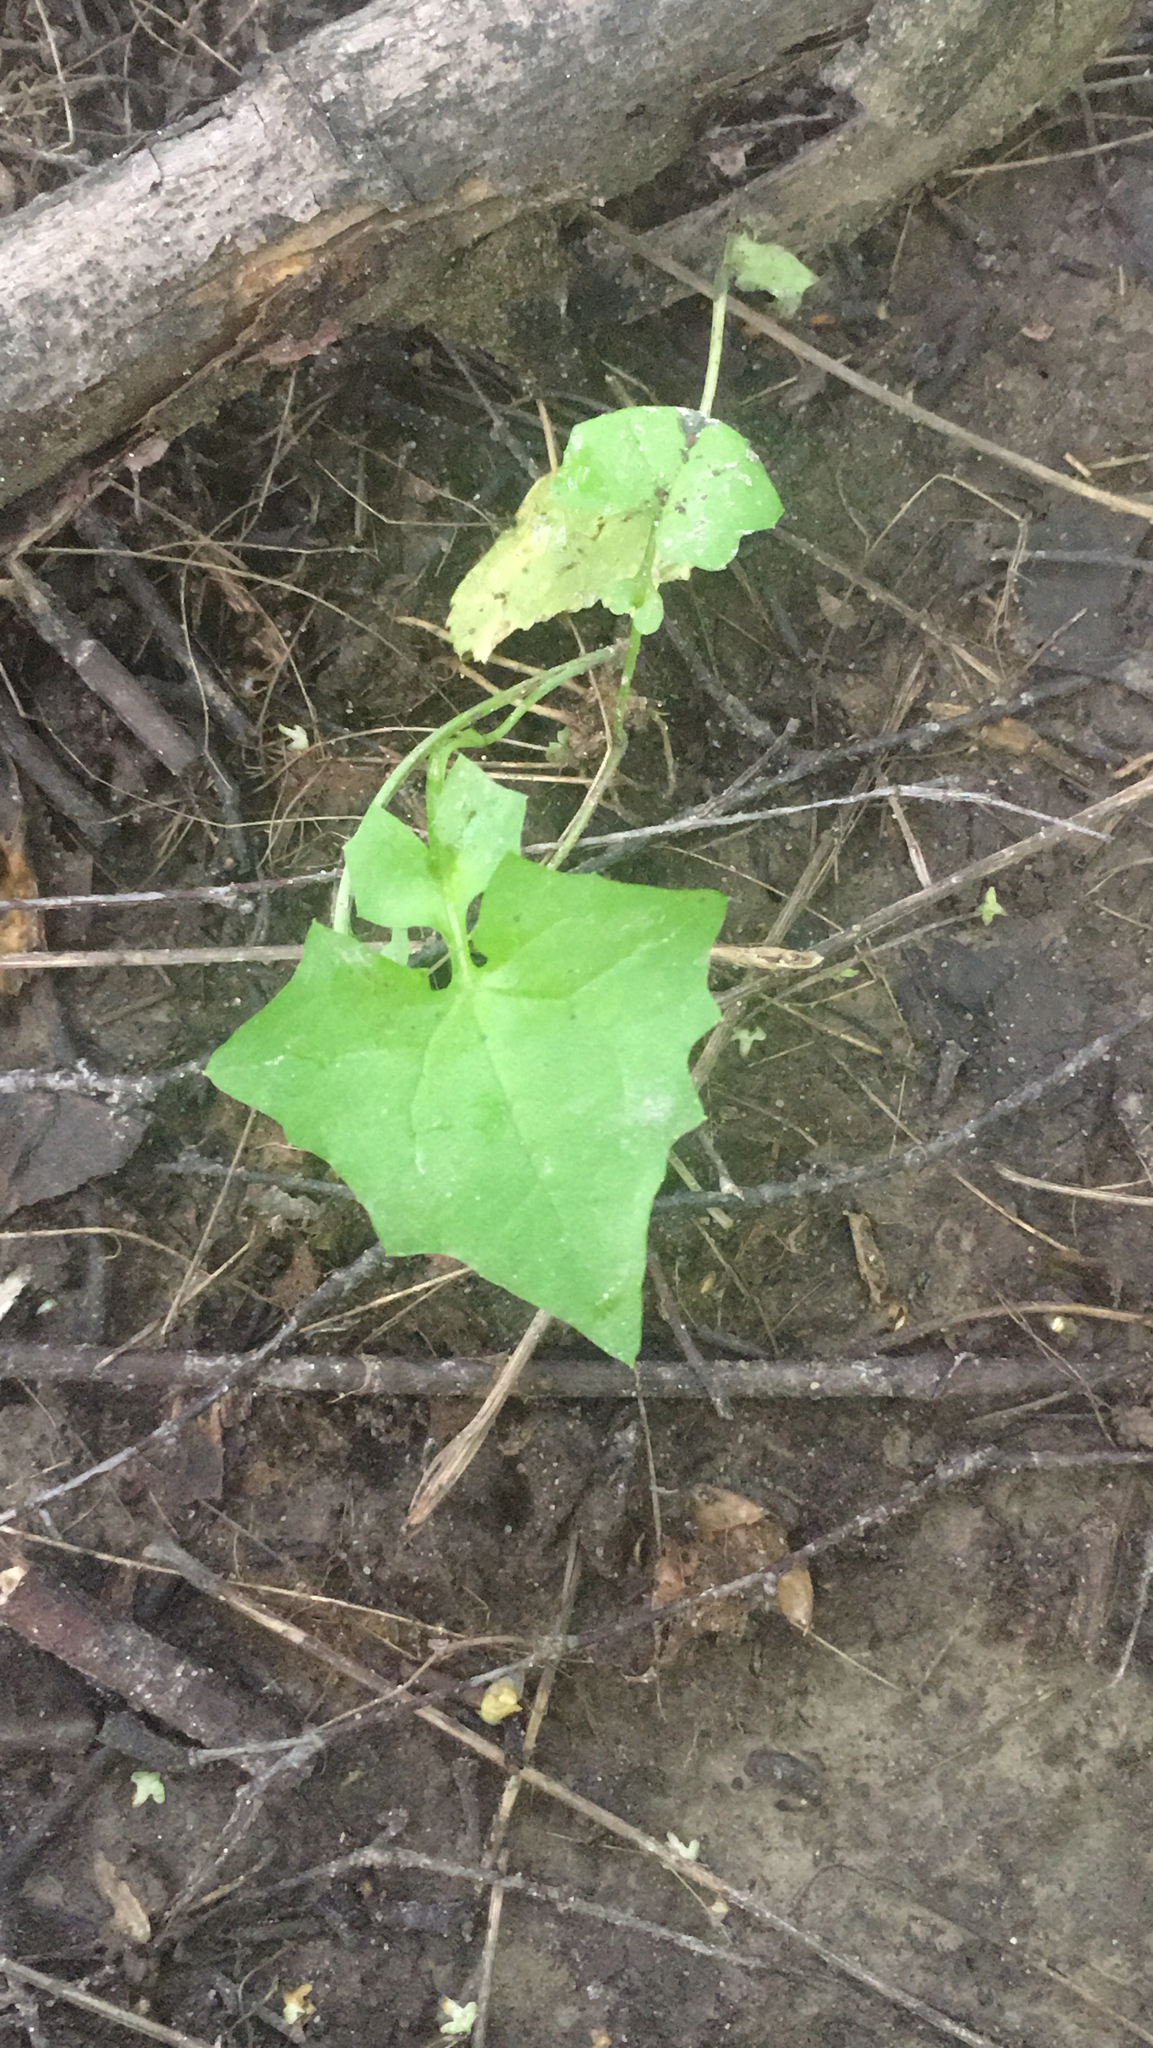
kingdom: Plantae
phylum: Tracheophyta
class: Magnoliopsida
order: Asterales
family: Asteraceae
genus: Mycelis
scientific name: Mycelis muralis
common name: Wall lettuce
